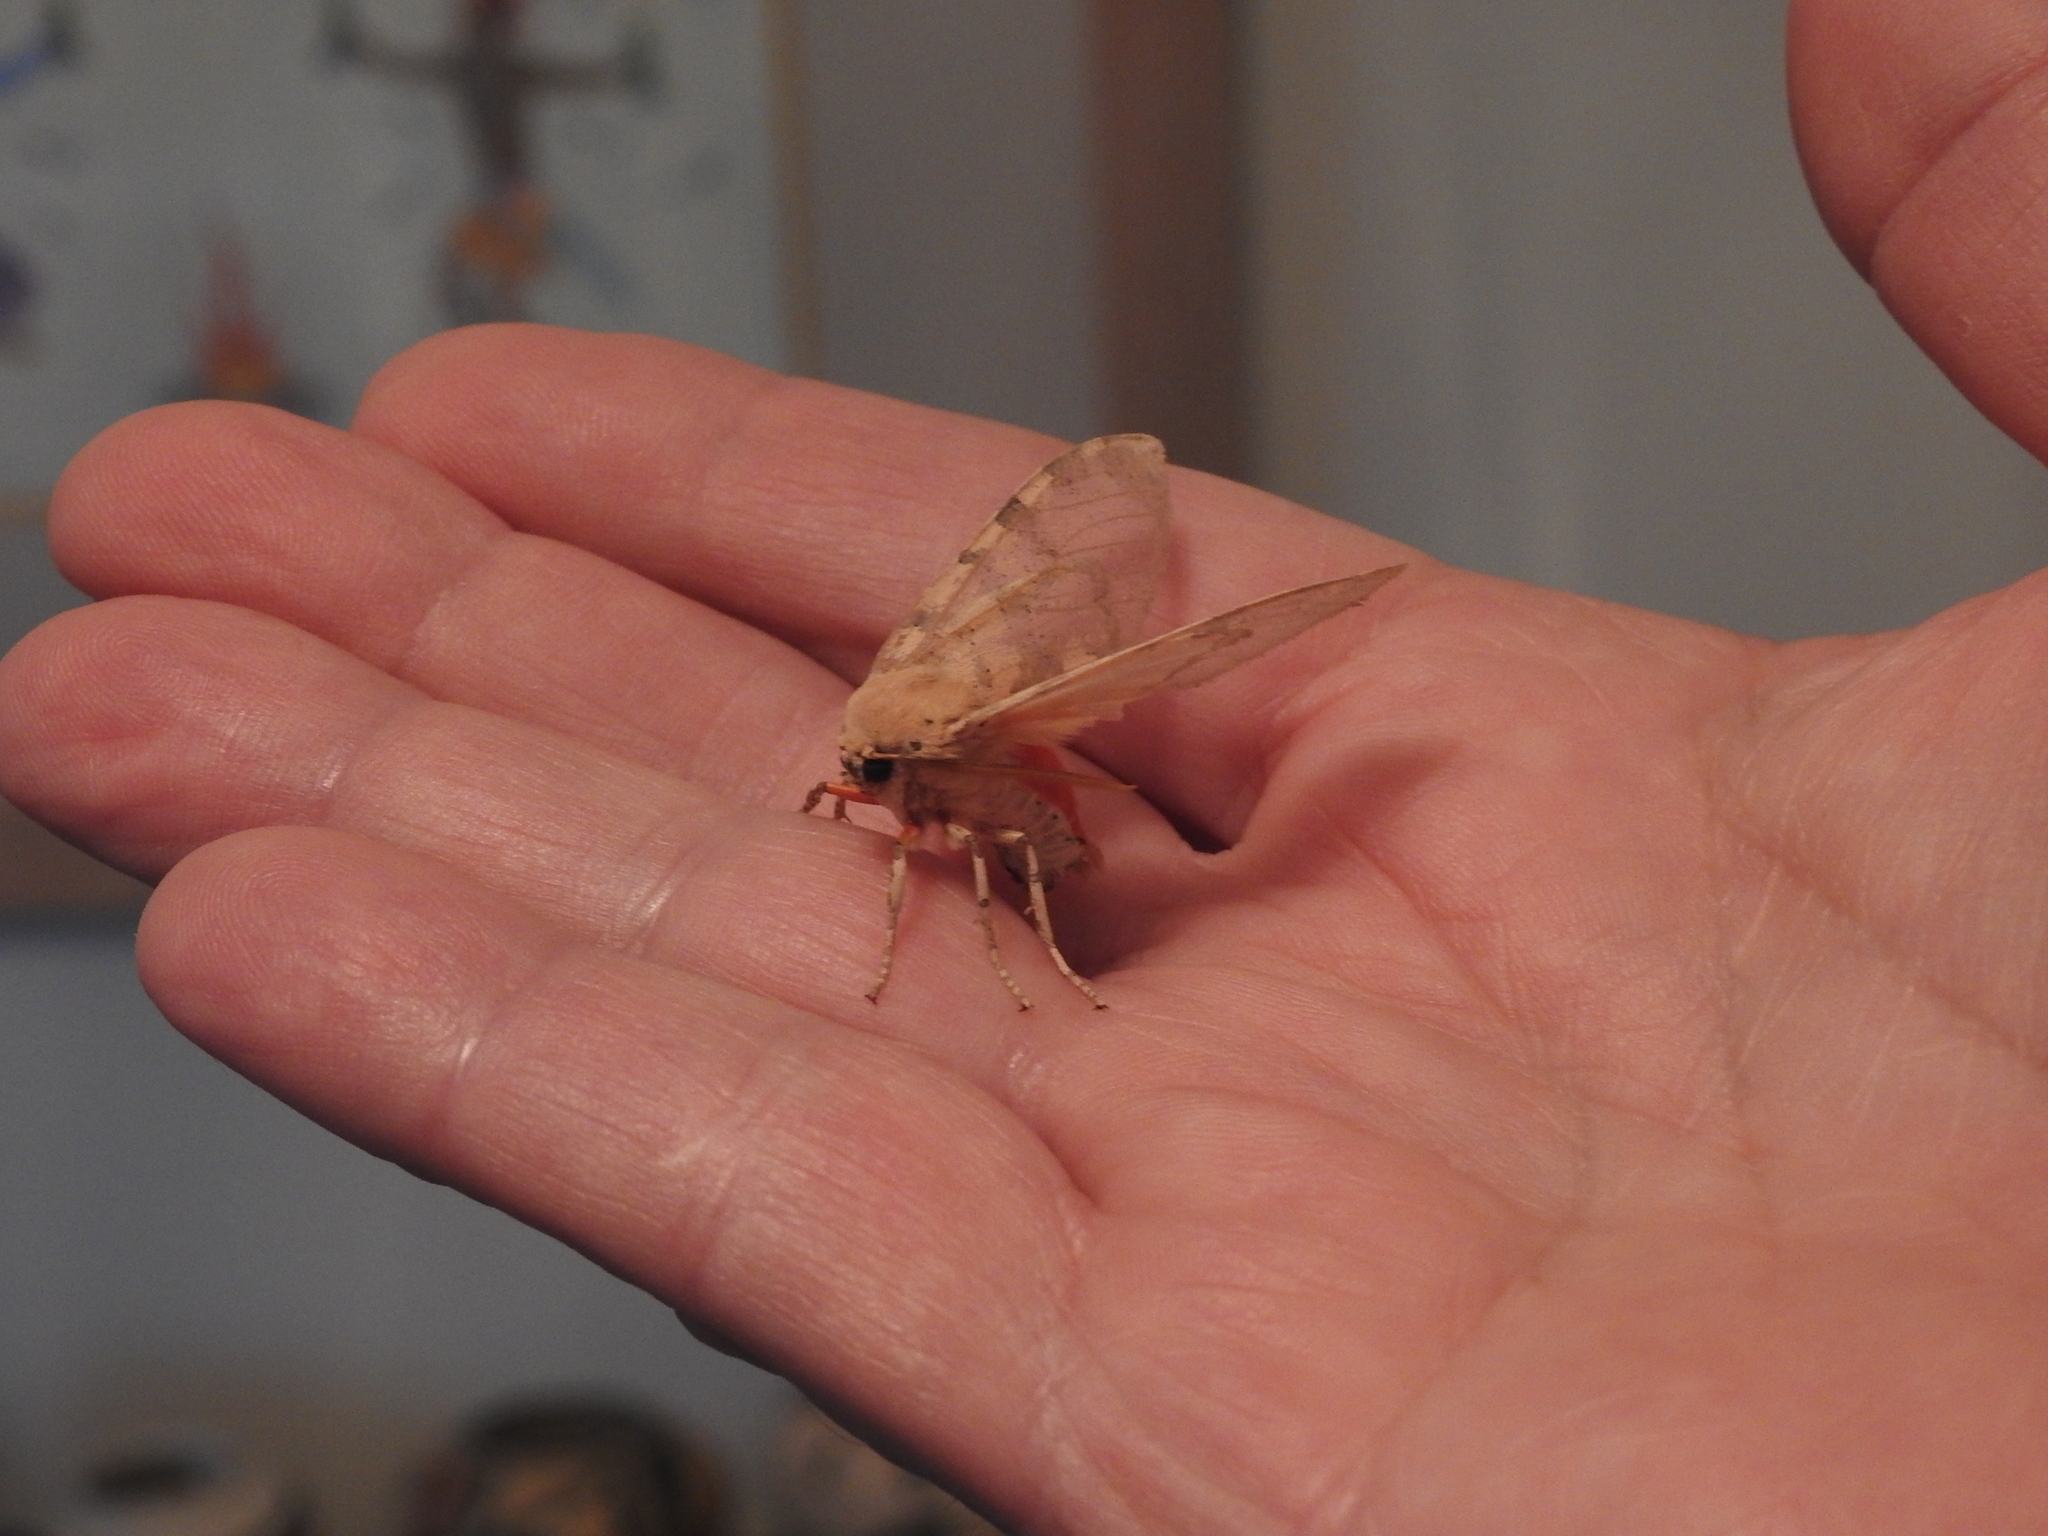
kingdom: Animalia
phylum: Arthropoda
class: Insecta
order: Lepidoptera
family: Erebidae
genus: Hemihyalea
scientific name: Hemihyalea edwardsii
